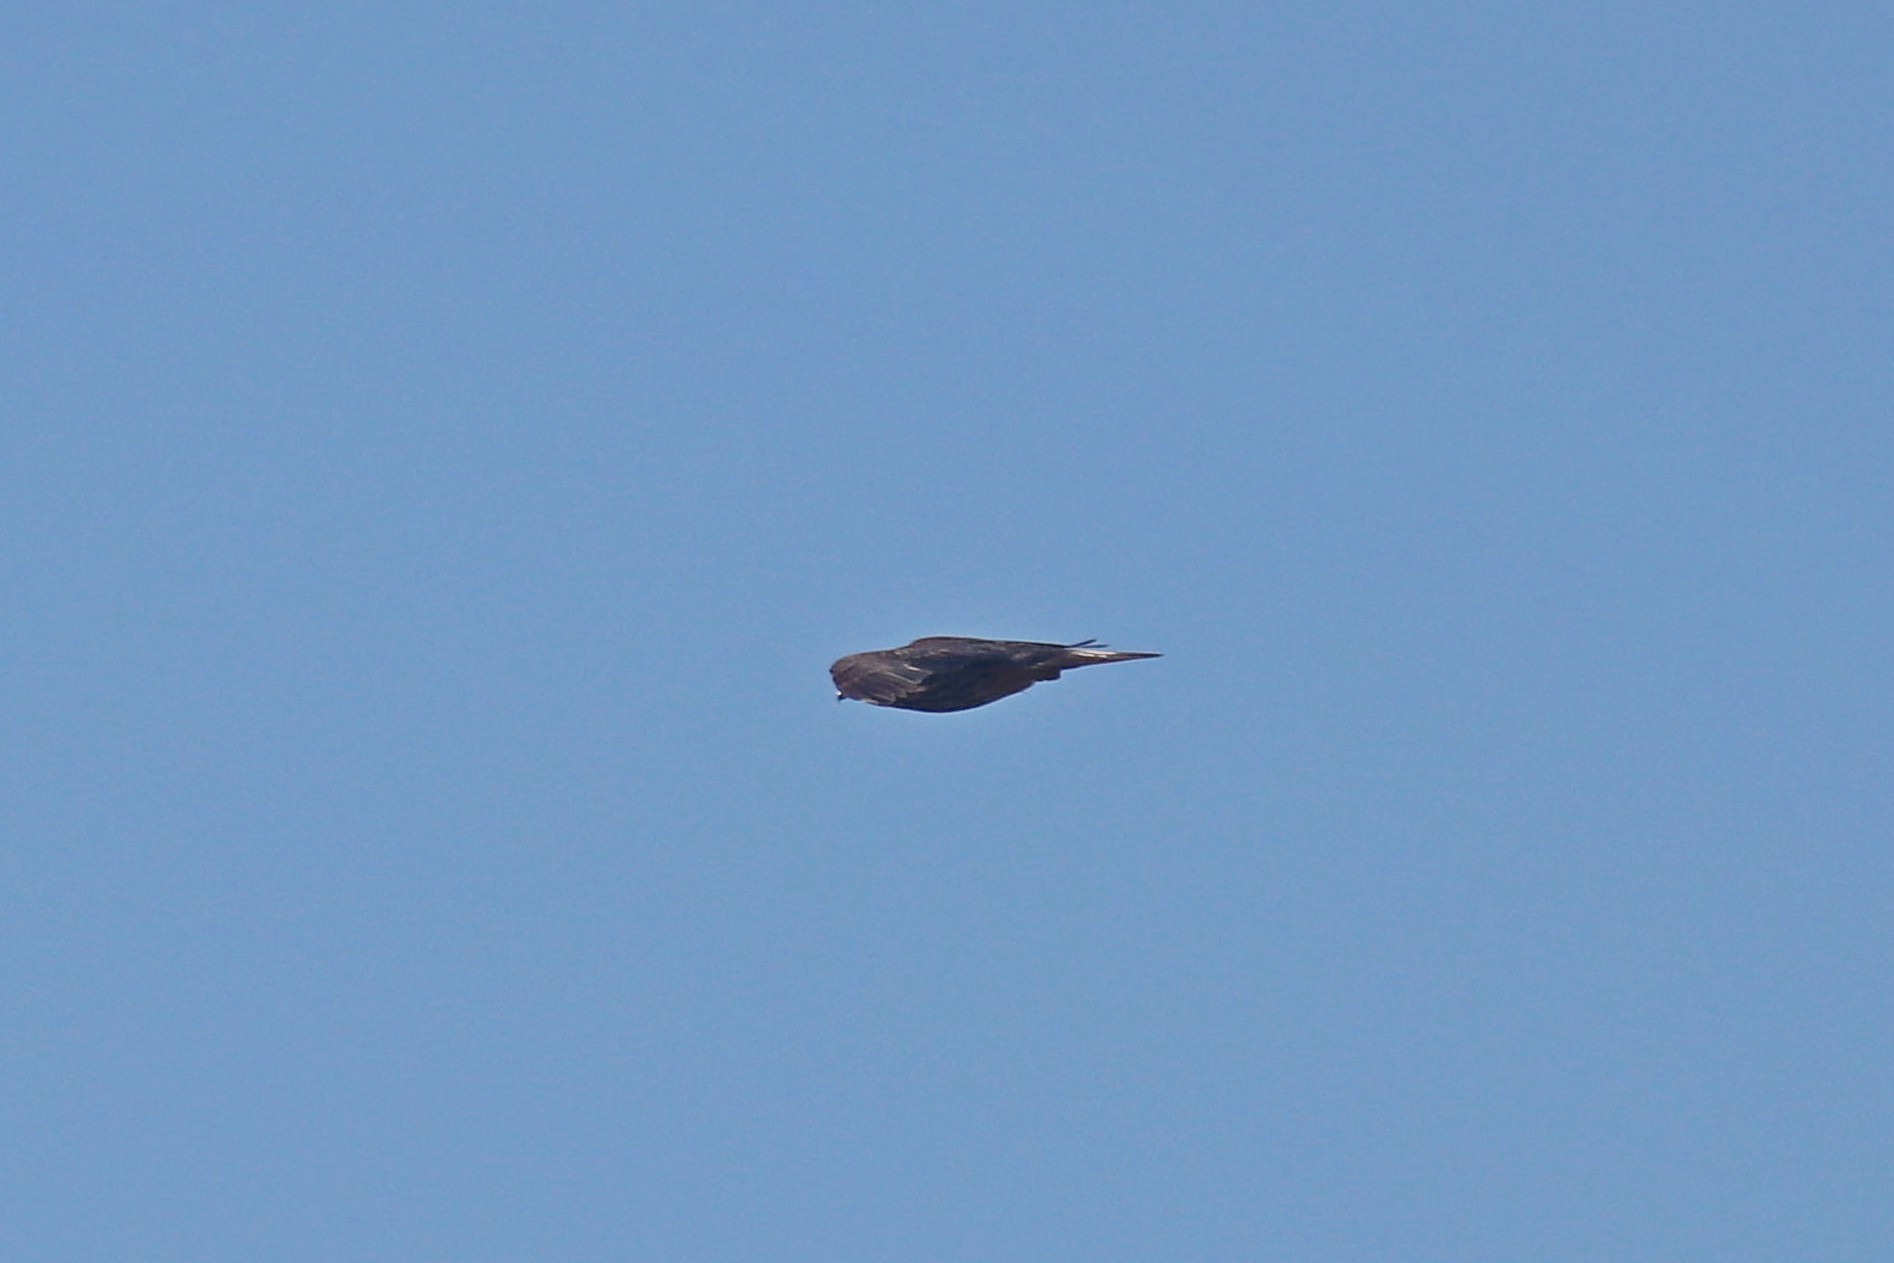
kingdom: Animalia
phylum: Chordata
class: Aves
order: Falconiformes
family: Falconidae
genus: Falco
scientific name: Falco subbuteo
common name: Eurasian hobby
